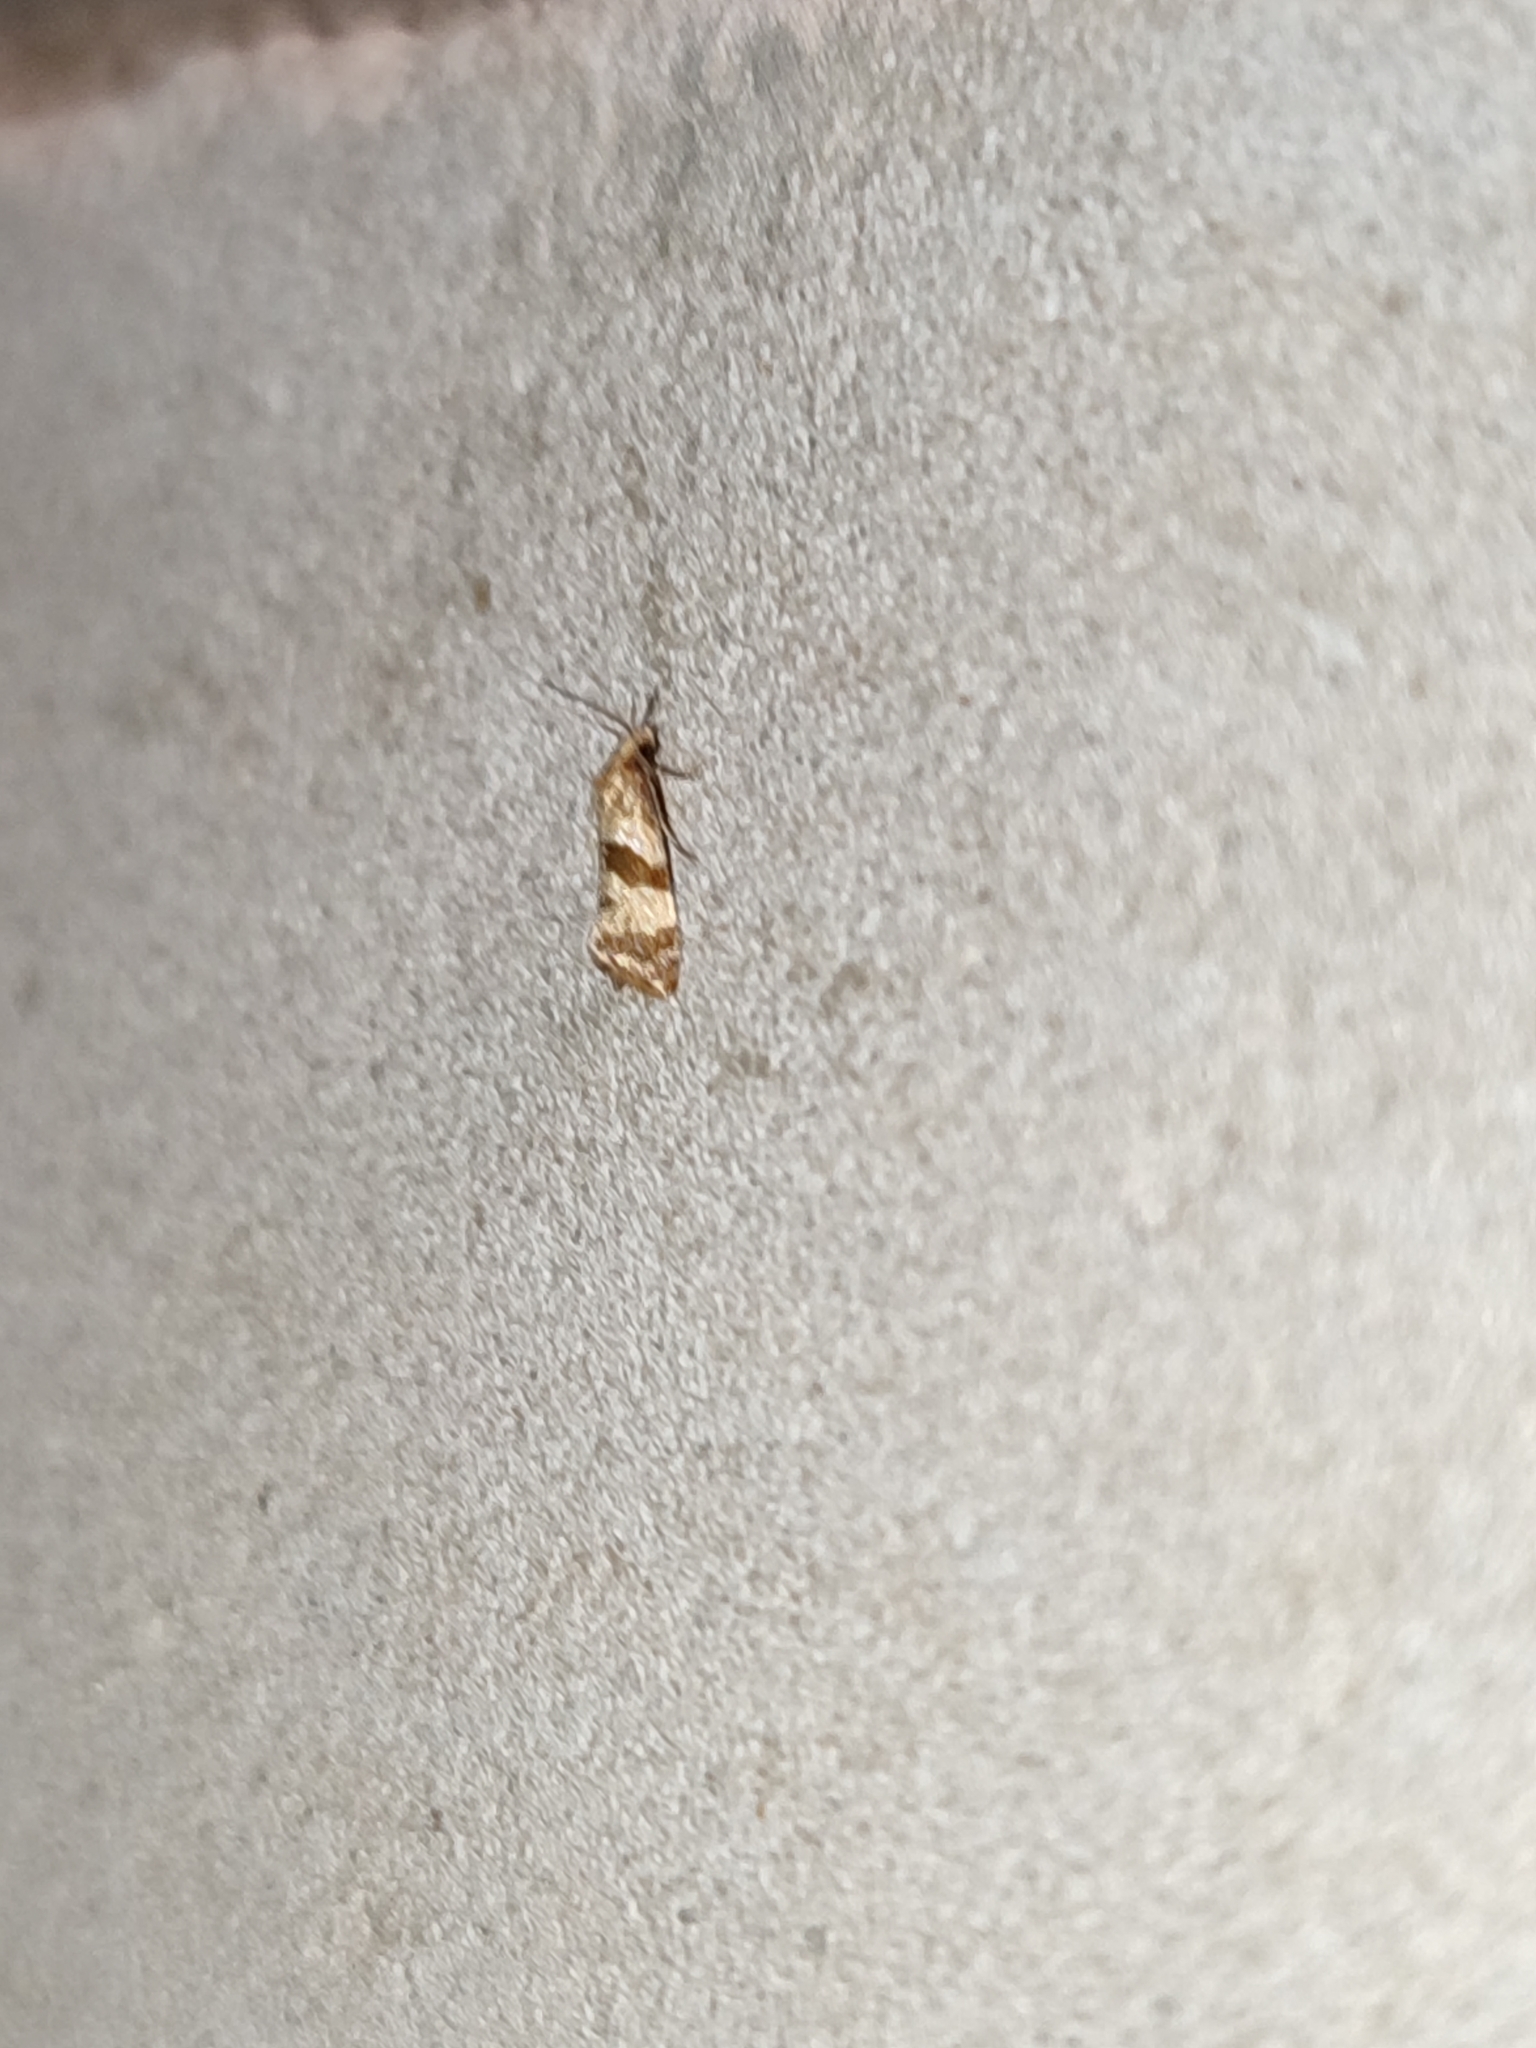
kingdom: Animalia
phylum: Arthropoda
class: Insecta
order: Lepidoptera
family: Tortricidae
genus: Phalonidia
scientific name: Phalonidia contractana
